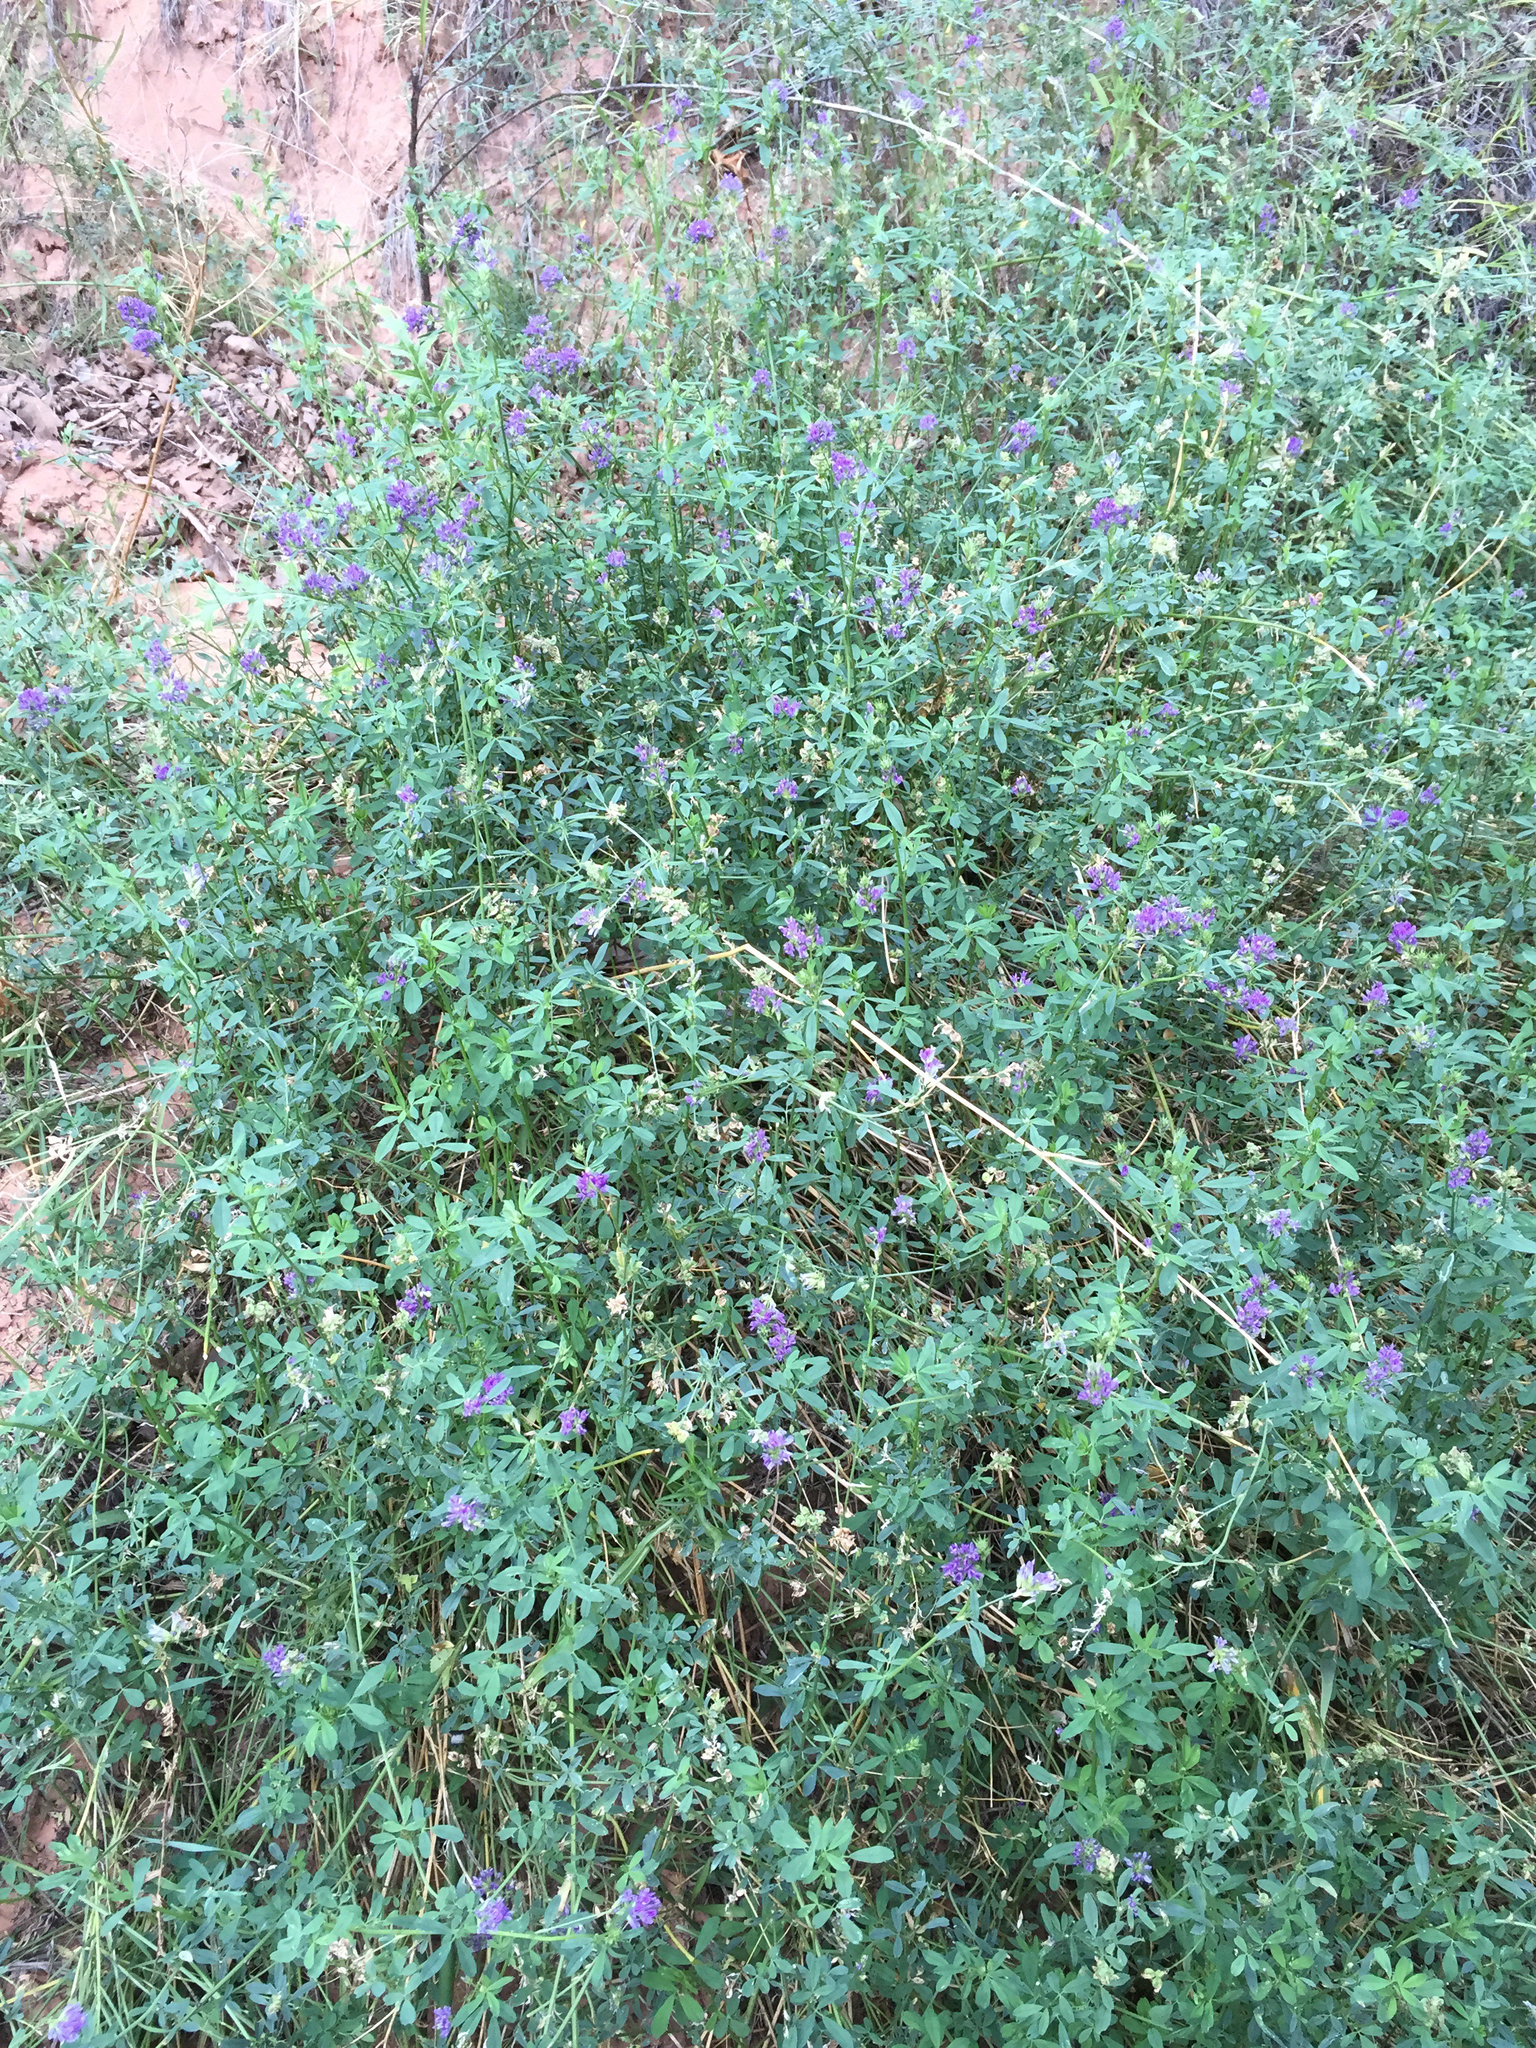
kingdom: Plantae
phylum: Tracheophyta
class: Magnoliopsida
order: Fabales
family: Fabaceae
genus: Medicago
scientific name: Medicago sativa
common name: Alfalfa
